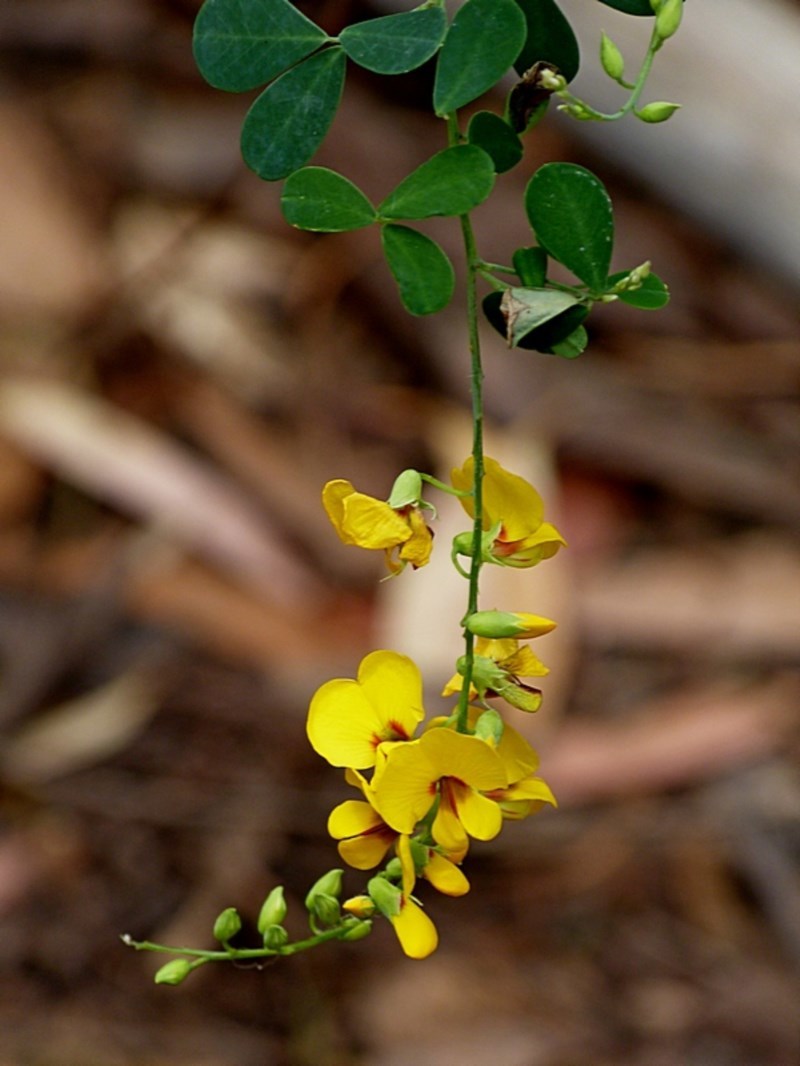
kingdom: Plantae
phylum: Tracheophyta
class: Magnoliopsida
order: Fabales
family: Fabaceae
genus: Goodia
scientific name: Goodia lotifolia
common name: Cloverleaf-poison
